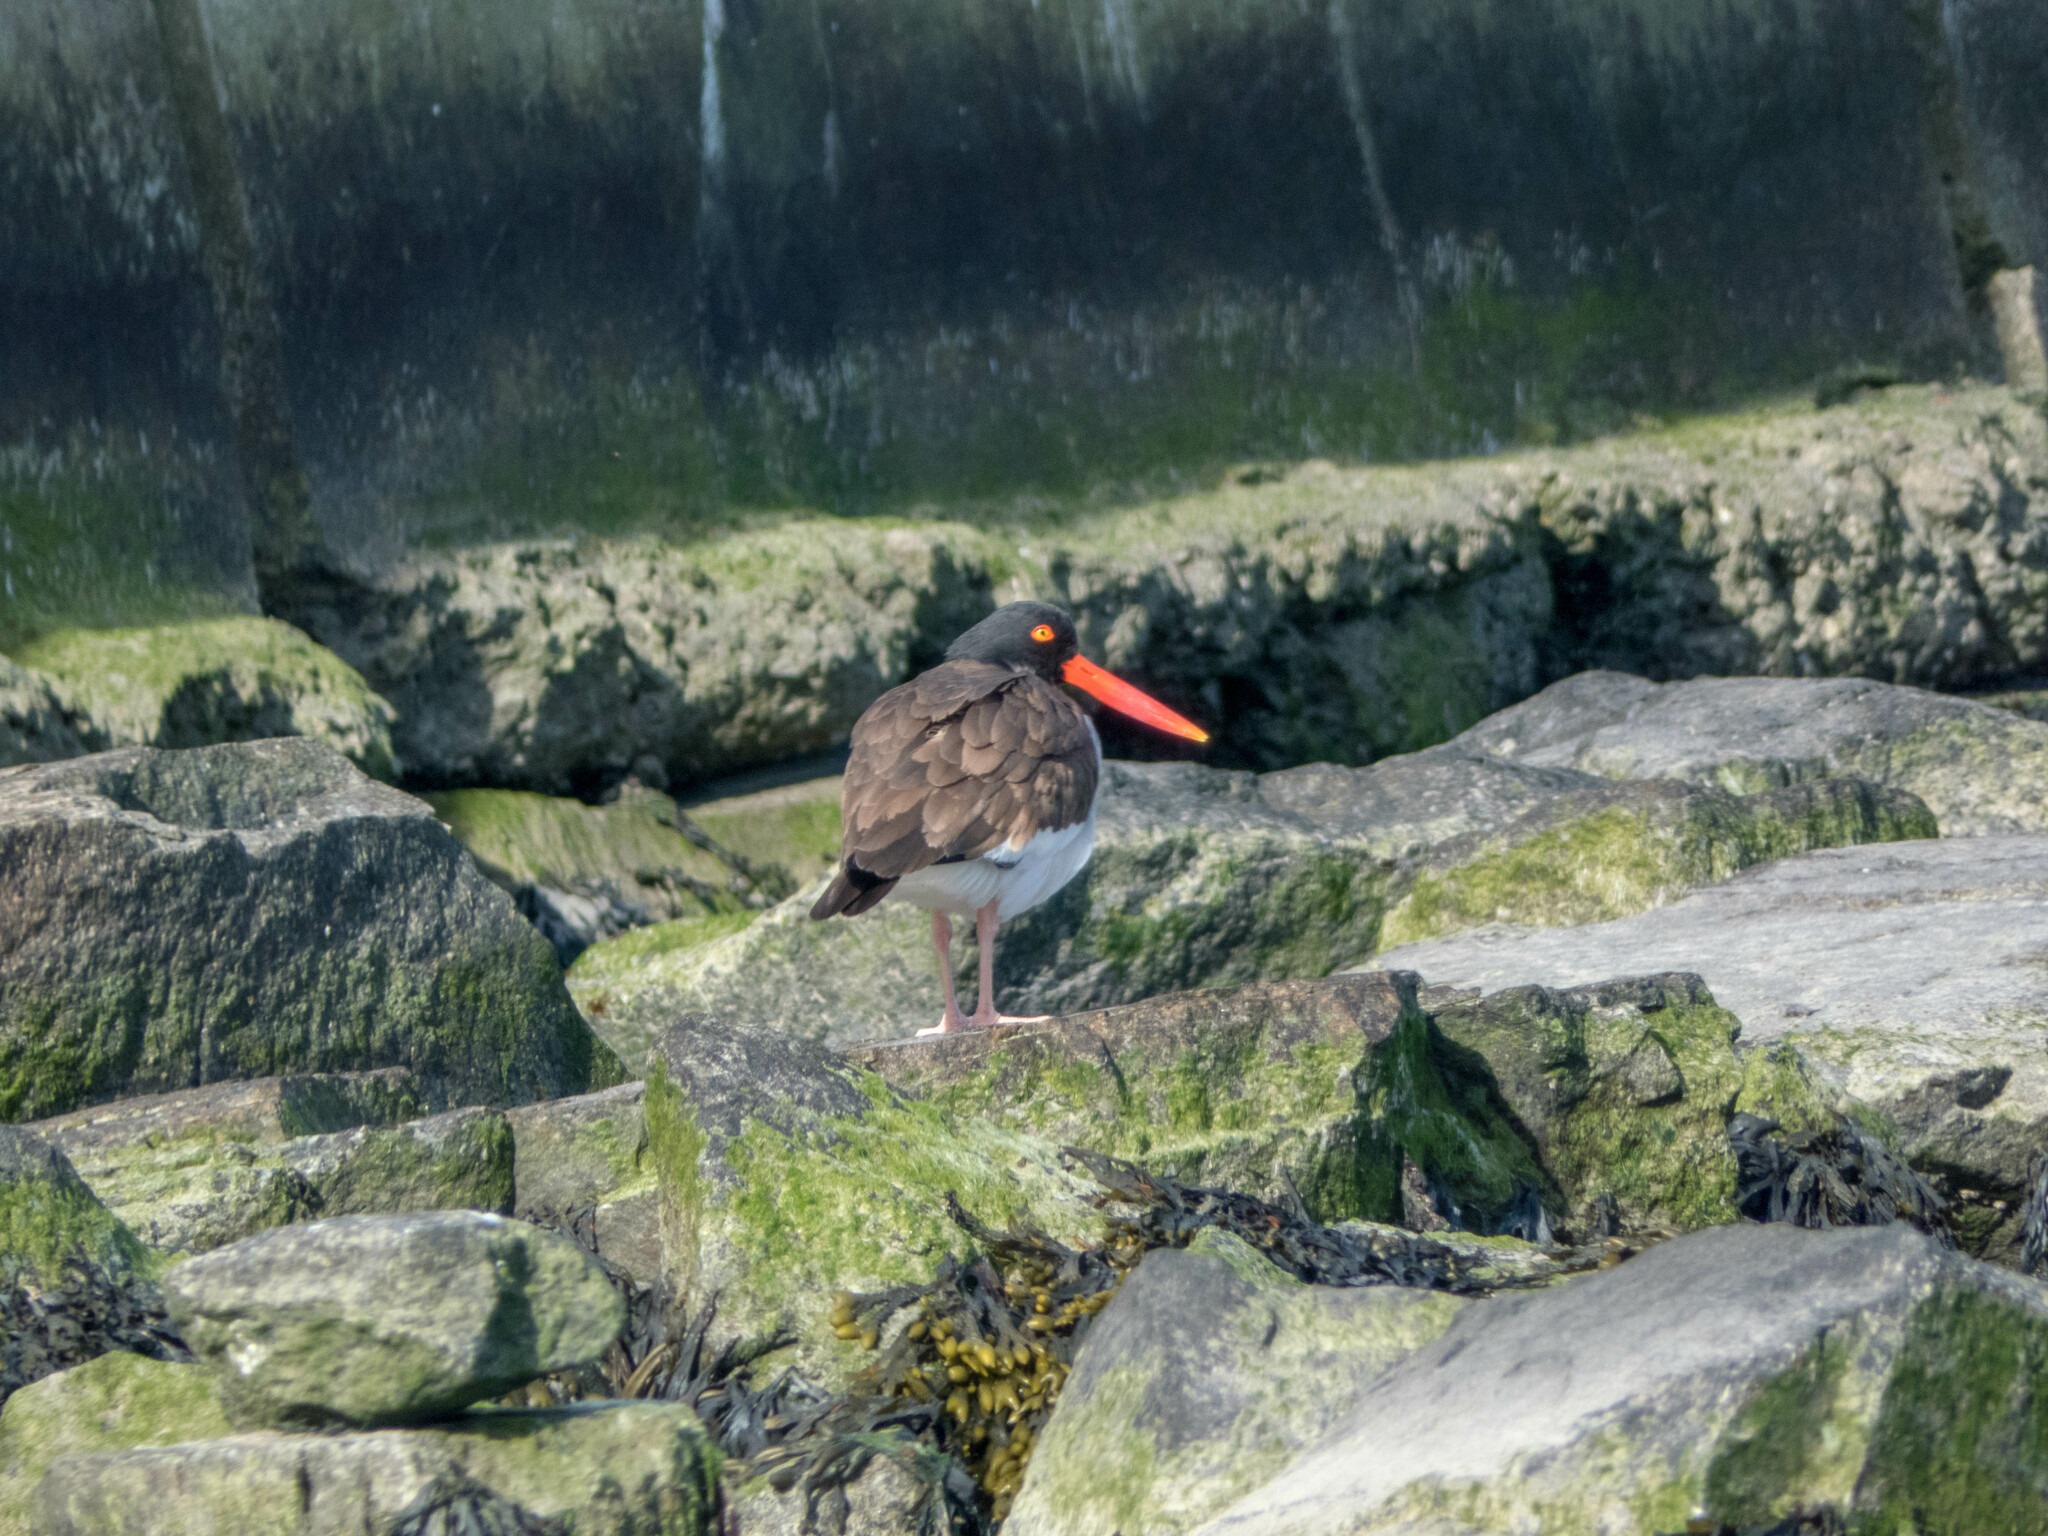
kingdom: Animalia
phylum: Chordata
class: Aves
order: Charadriiformes
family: Haematopodidae
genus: Haematopus
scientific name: Haematopus palliatus
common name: American oystercatcher
